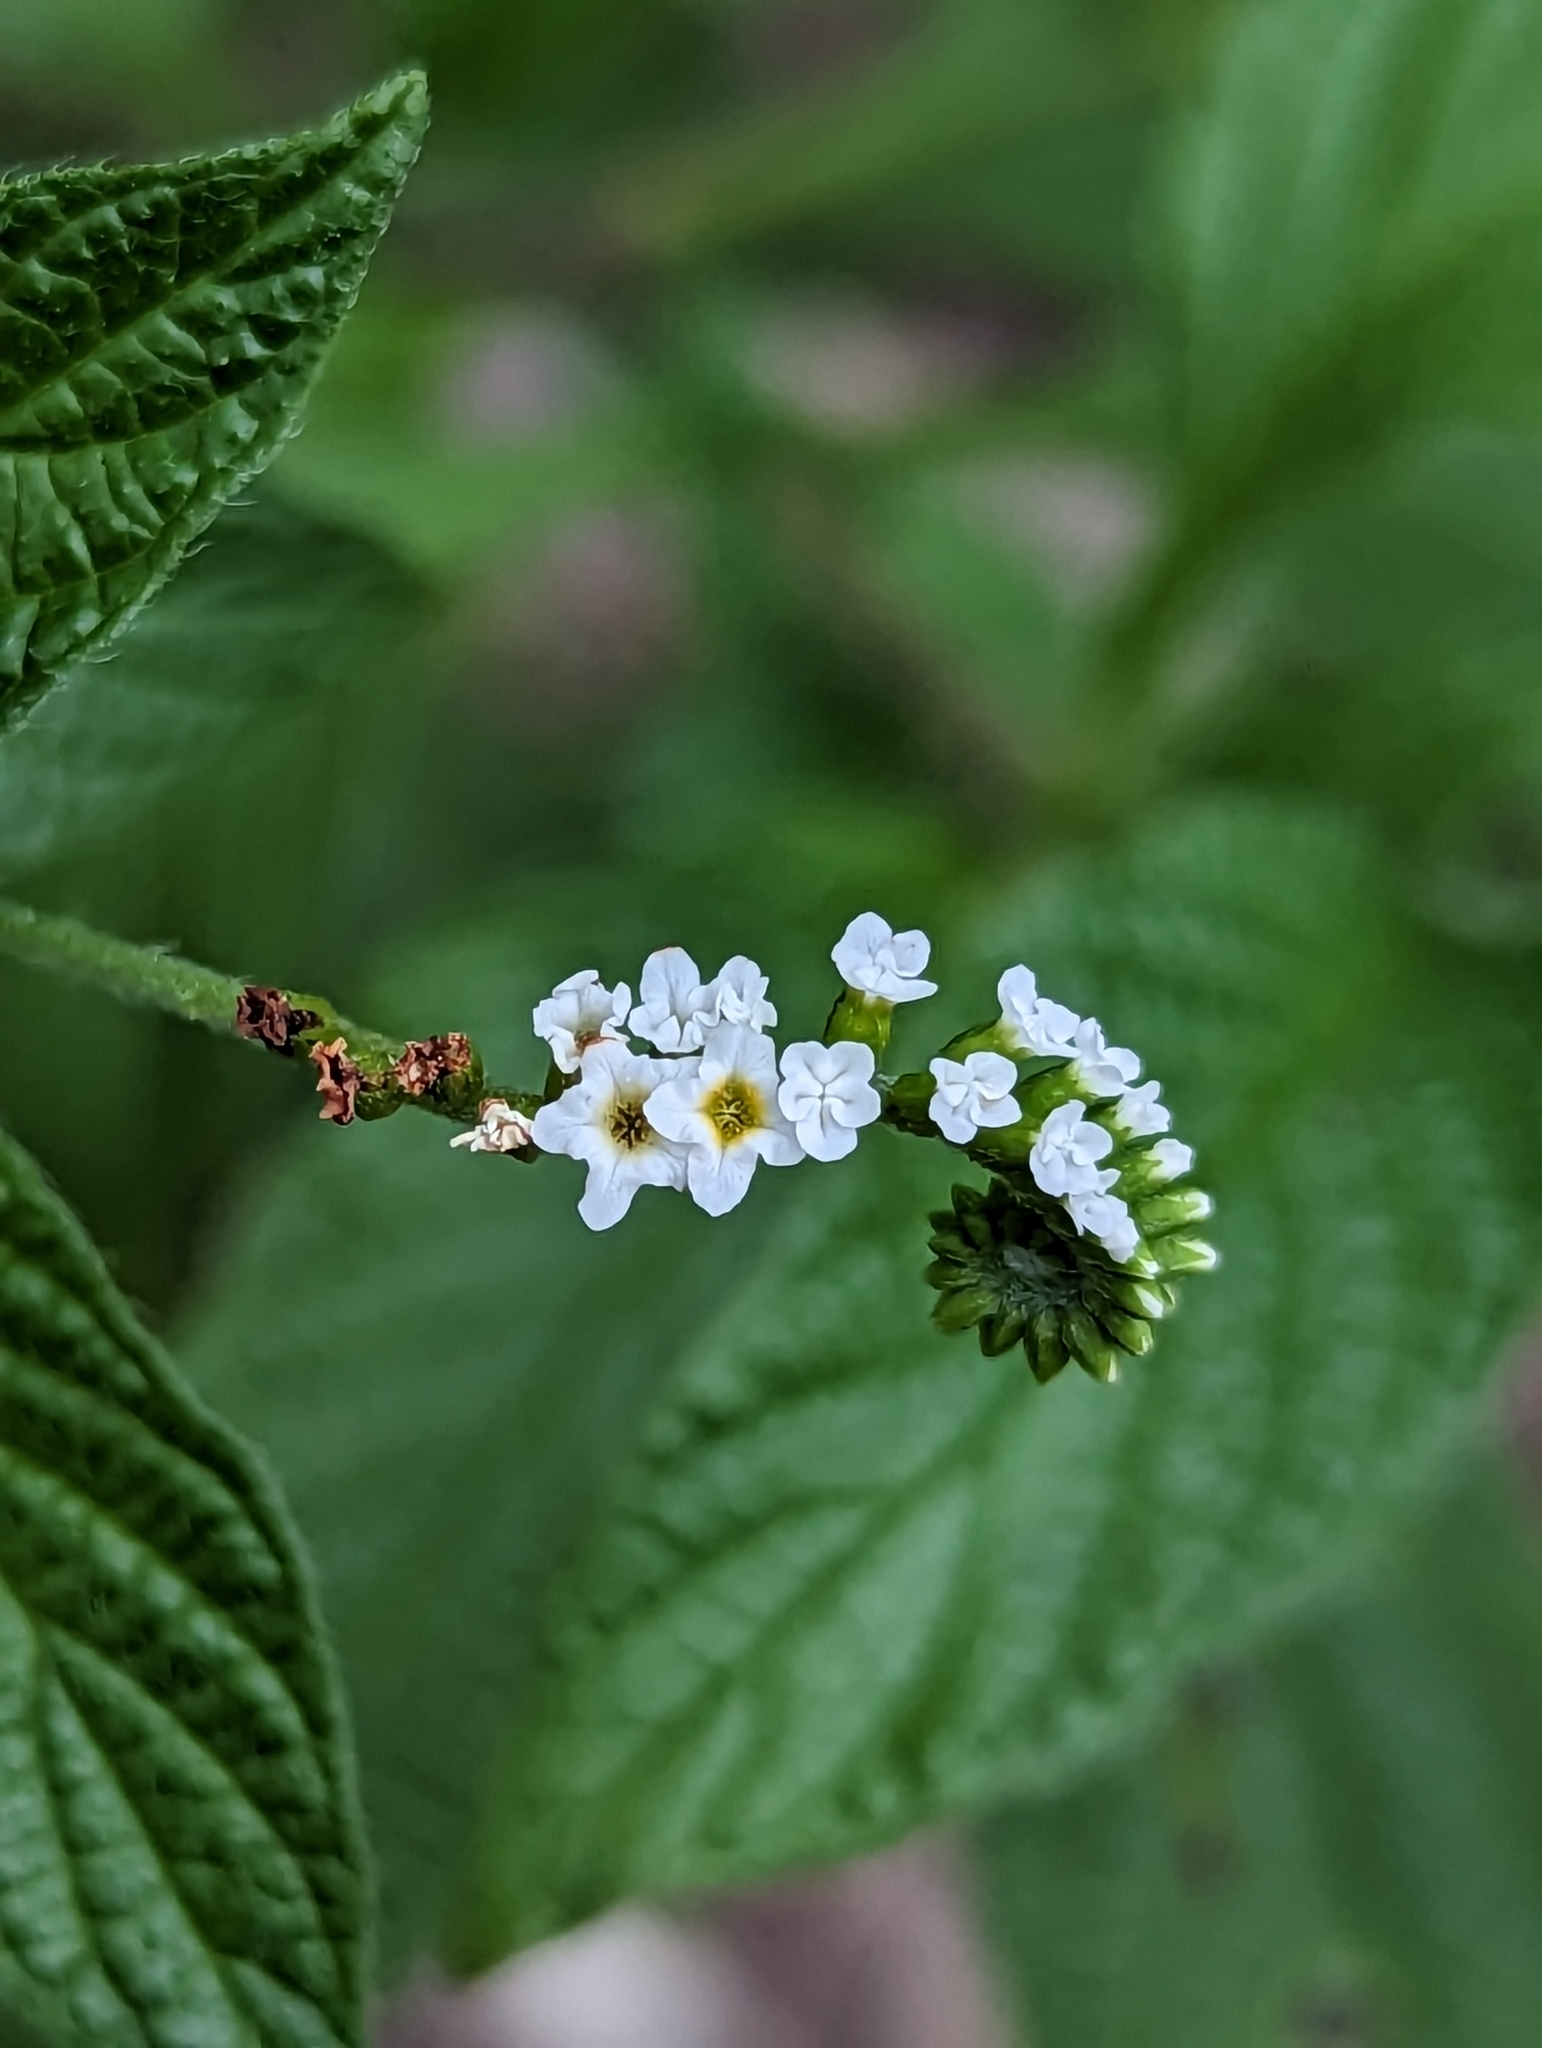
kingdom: Plantae
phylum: Tracheophyta
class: Magnoliopsida
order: Boraginales
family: Heliotropiaceae
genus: Heliotropium
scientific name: Heliotropium angiospermum
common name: Eye bright
